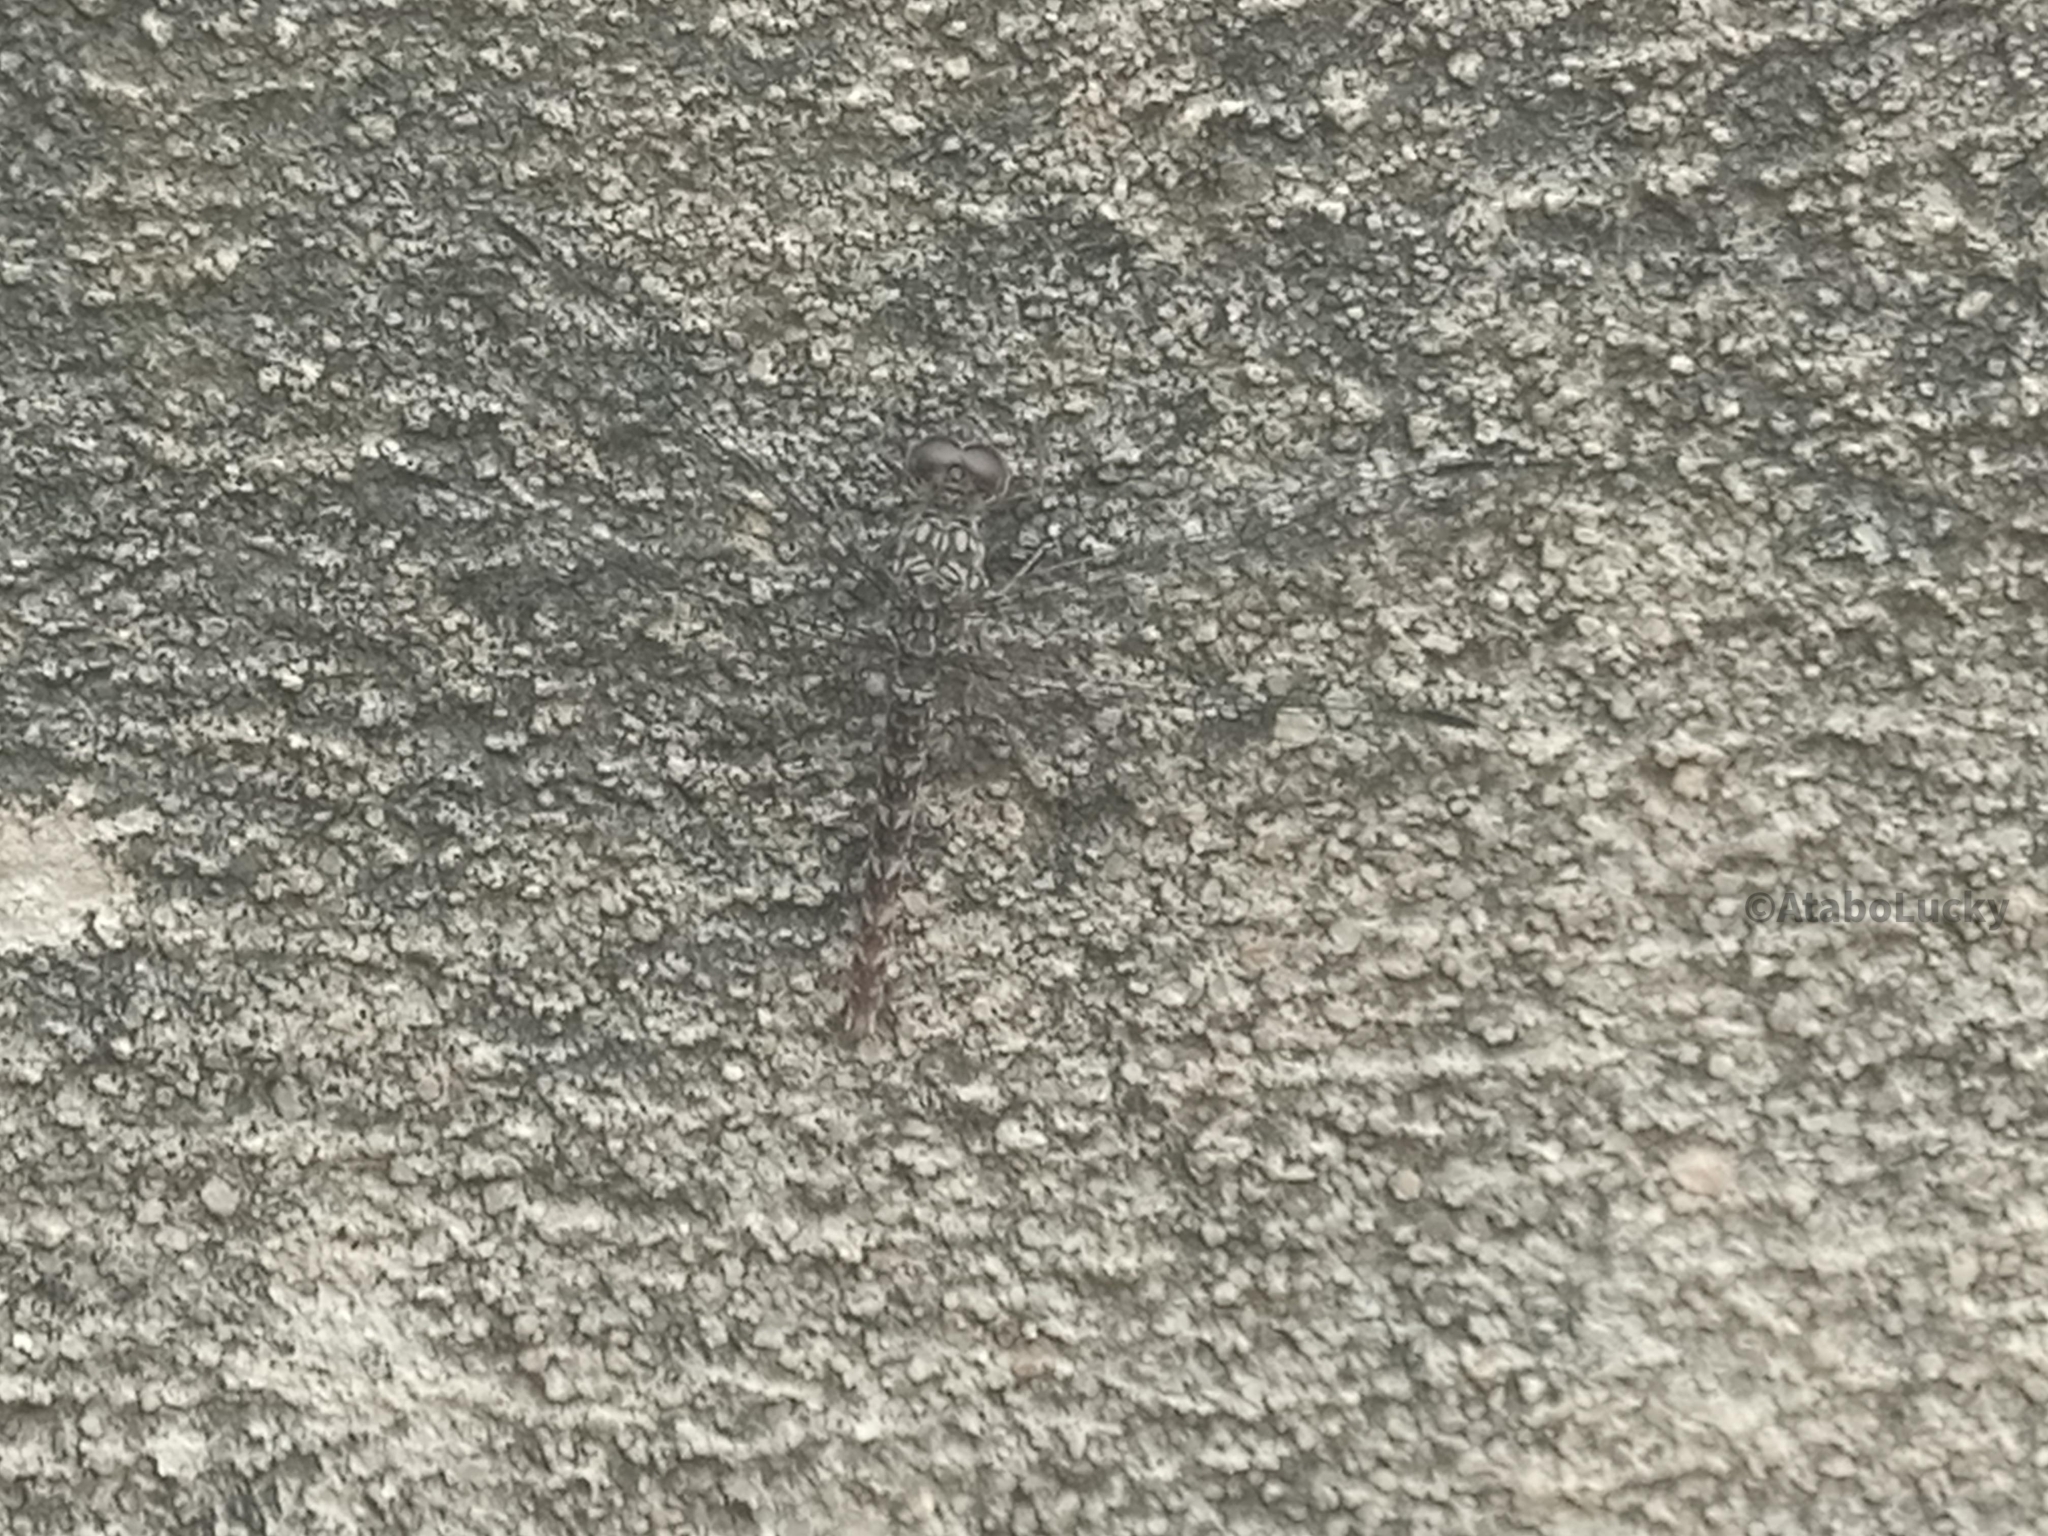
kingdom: Animalia
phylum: Arthropoda
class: Insecta
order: Odonata
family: Libellulidae
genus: Bradinopyga
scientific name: Bradinopyga strachani
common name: Red rock-dweller
